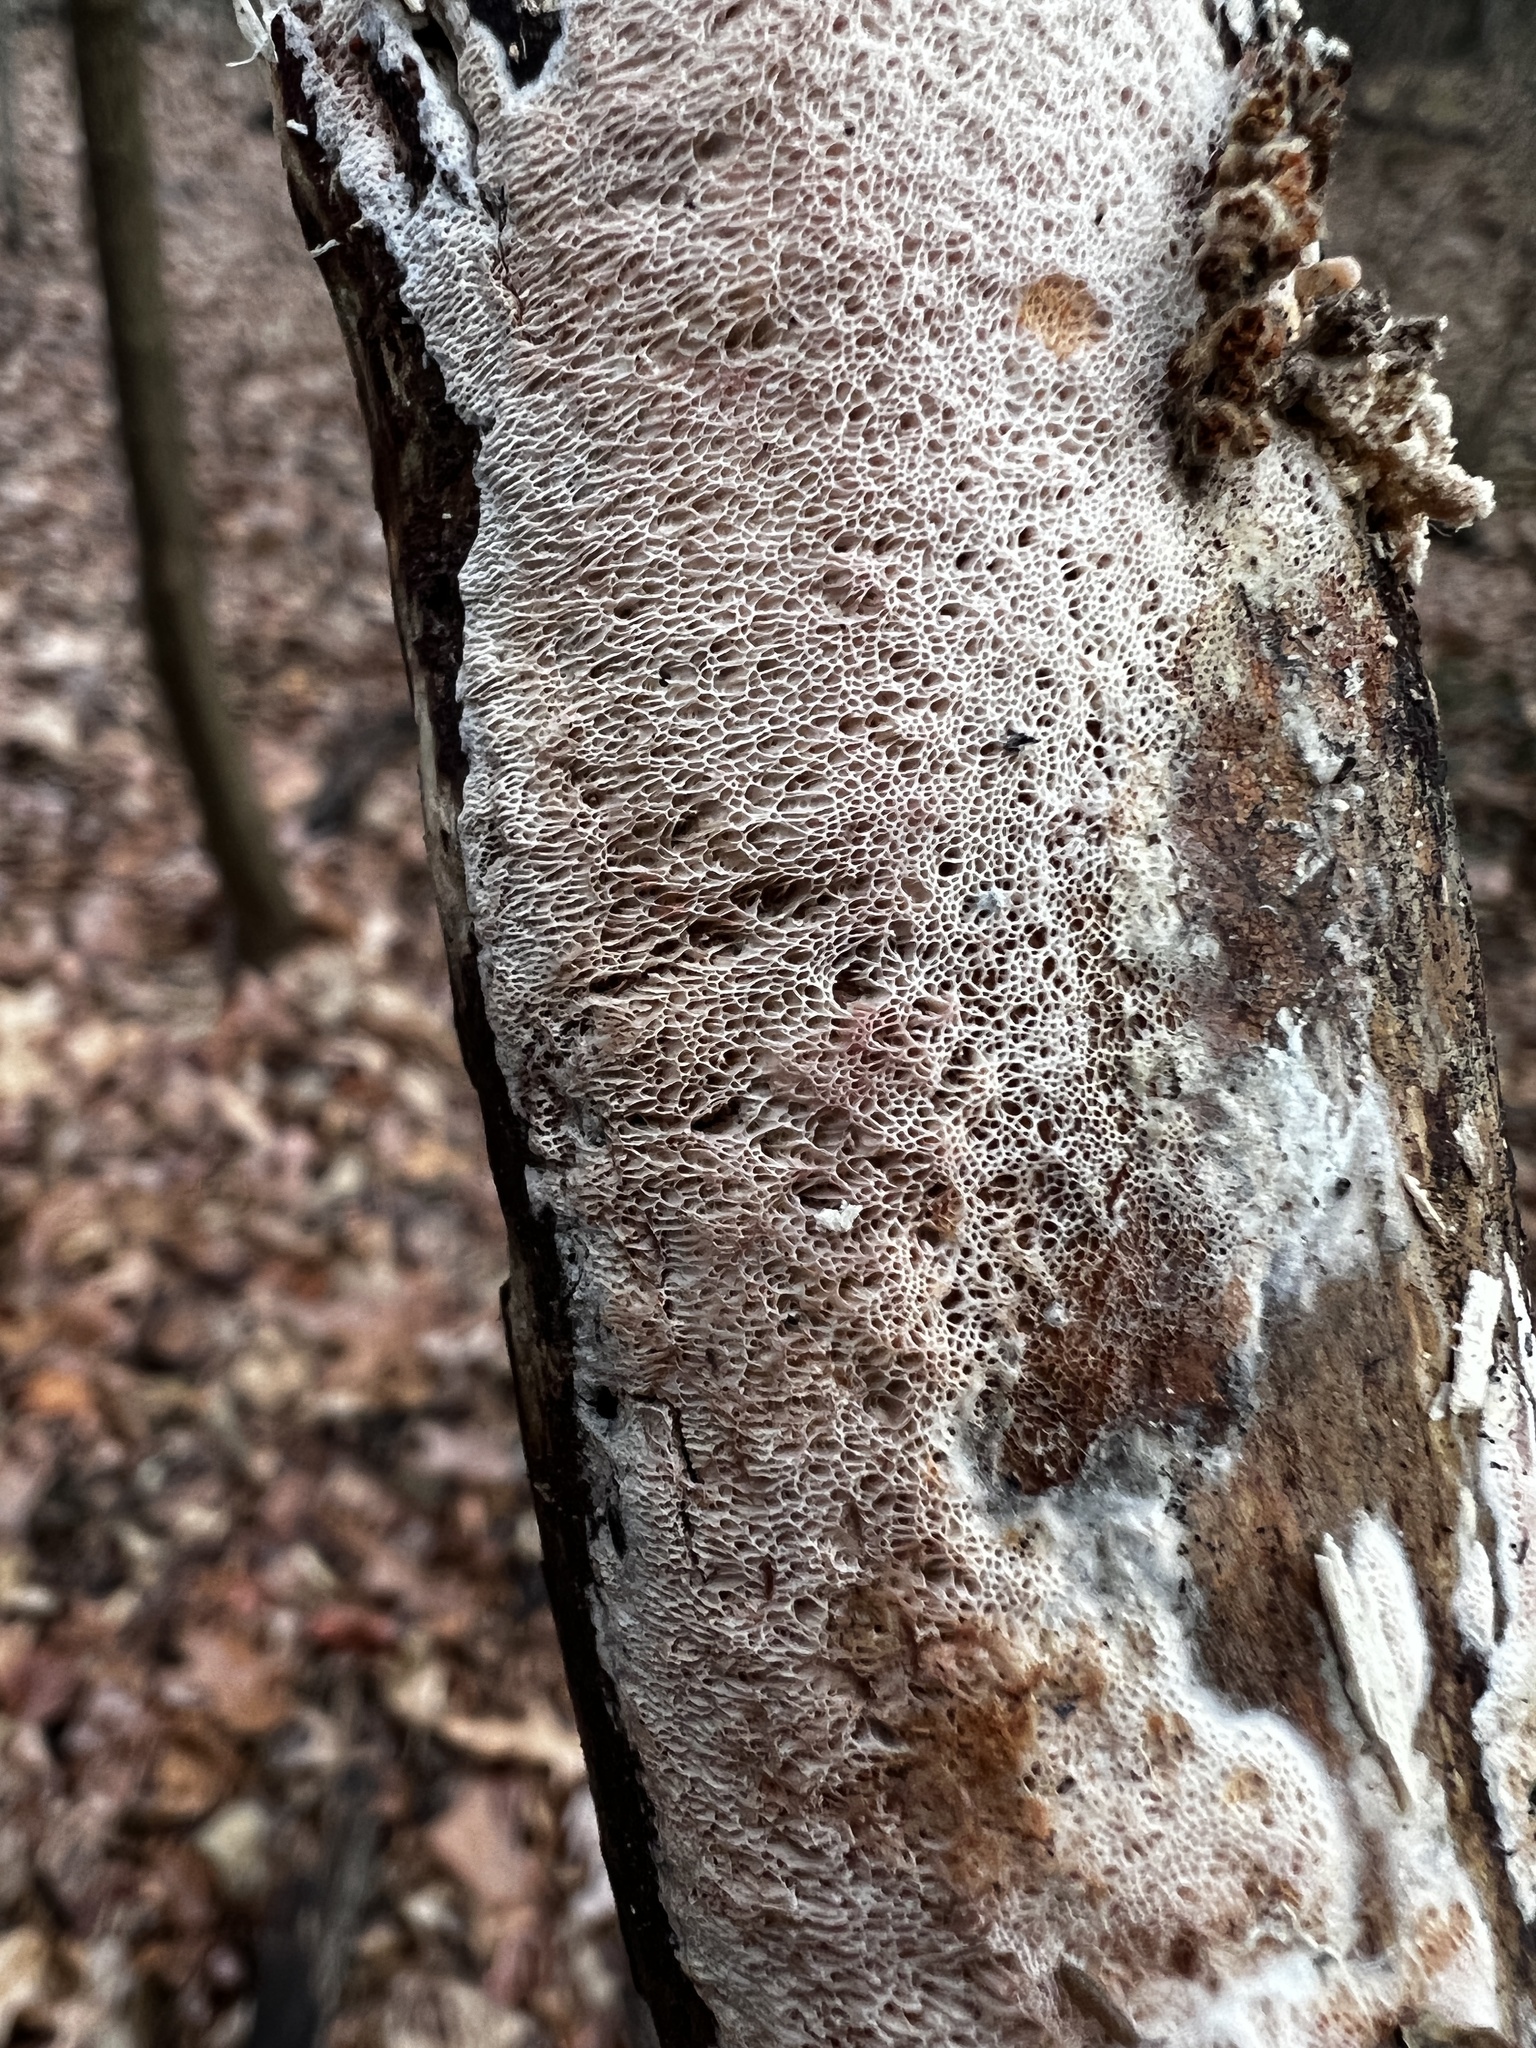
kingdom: Fungi
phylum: Basidiomycota
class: Agaricomycetes
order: Polyporales
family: Irpicaceae
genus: Ceriporia
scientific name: Ceriporia purpurea
